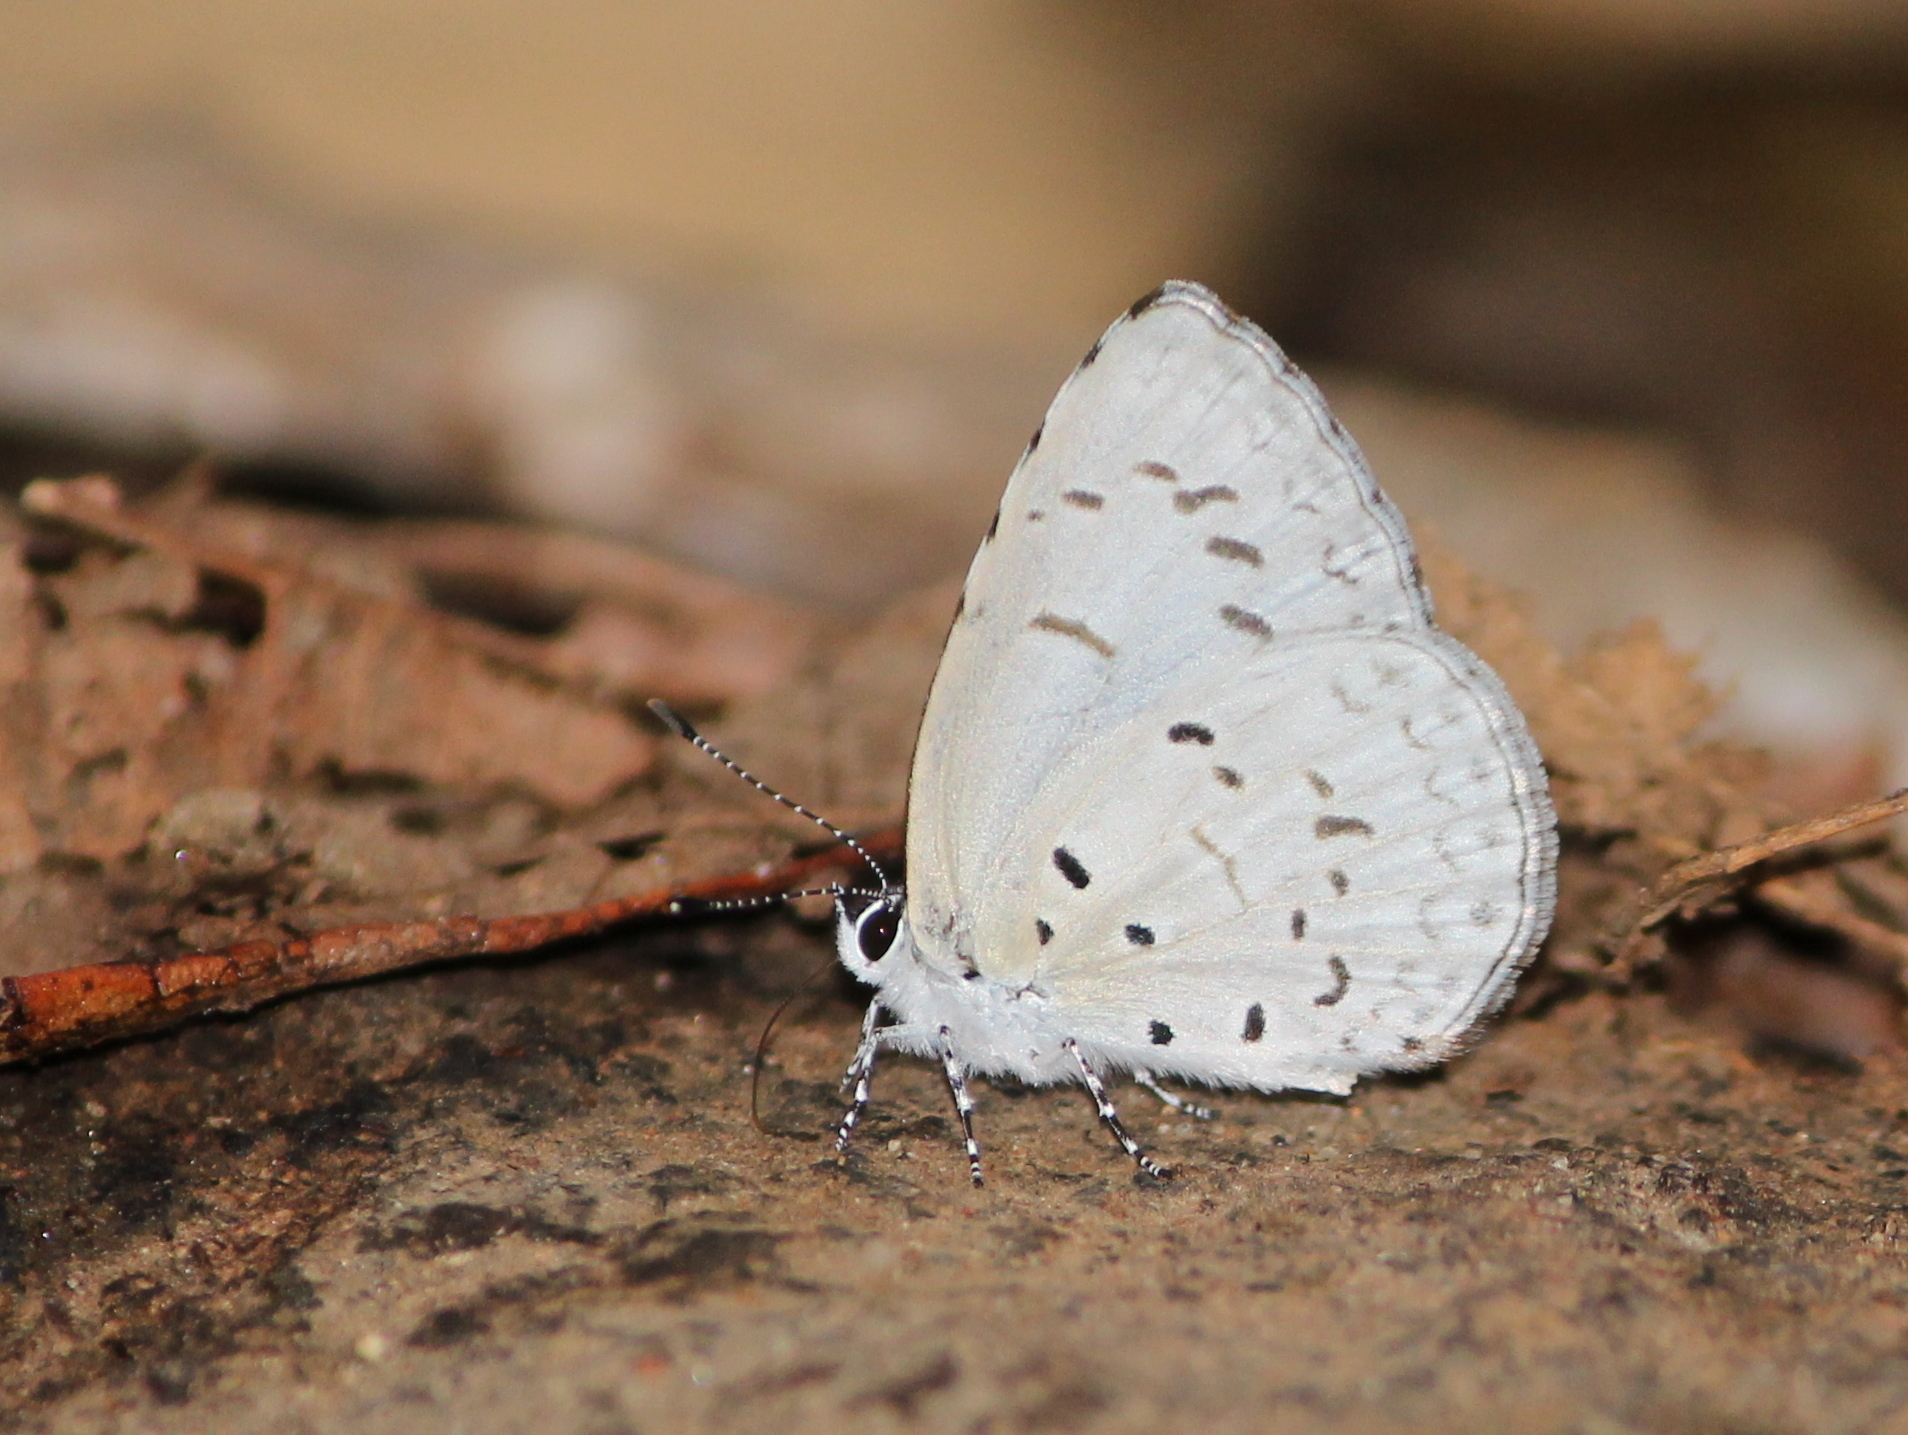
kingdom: Animalia
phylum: Arthropoda
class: Insecta
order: Lepidoptera
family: Lycaenidae
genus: Acytolepis
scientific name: Acytolepis puspa
